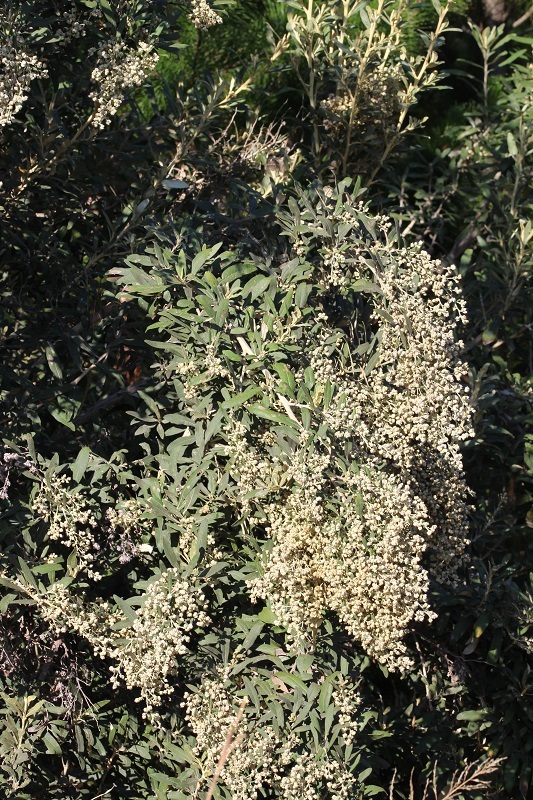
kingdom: Plantae
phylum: Tracheophyta
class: Magnoliopsida
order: Asterales
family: Asteraceae
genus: Tarchonanthus
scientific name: Tarchonanthus littoralis
